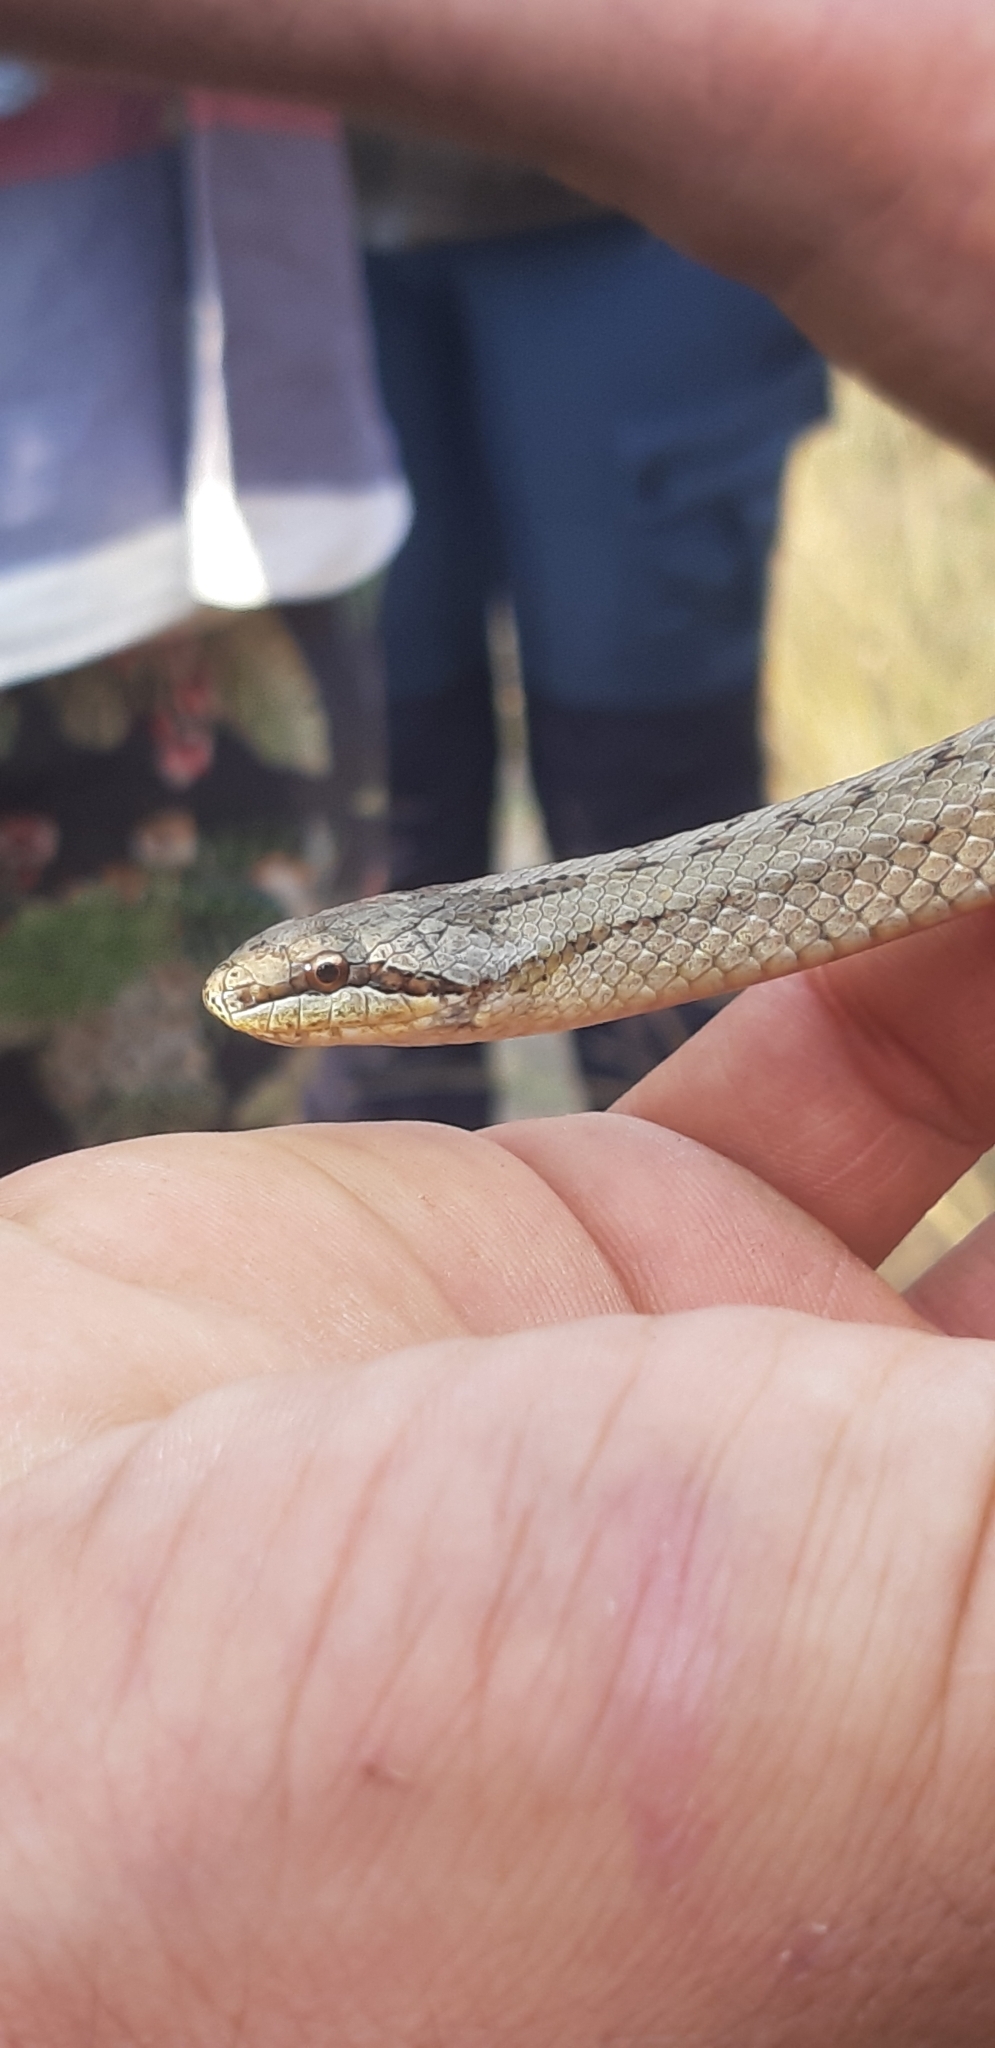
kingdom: Animalia
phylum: Chordata
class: Squamata
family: Colubridae
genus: Coronella
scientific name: Coronella austriaca
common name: Smooth snake
